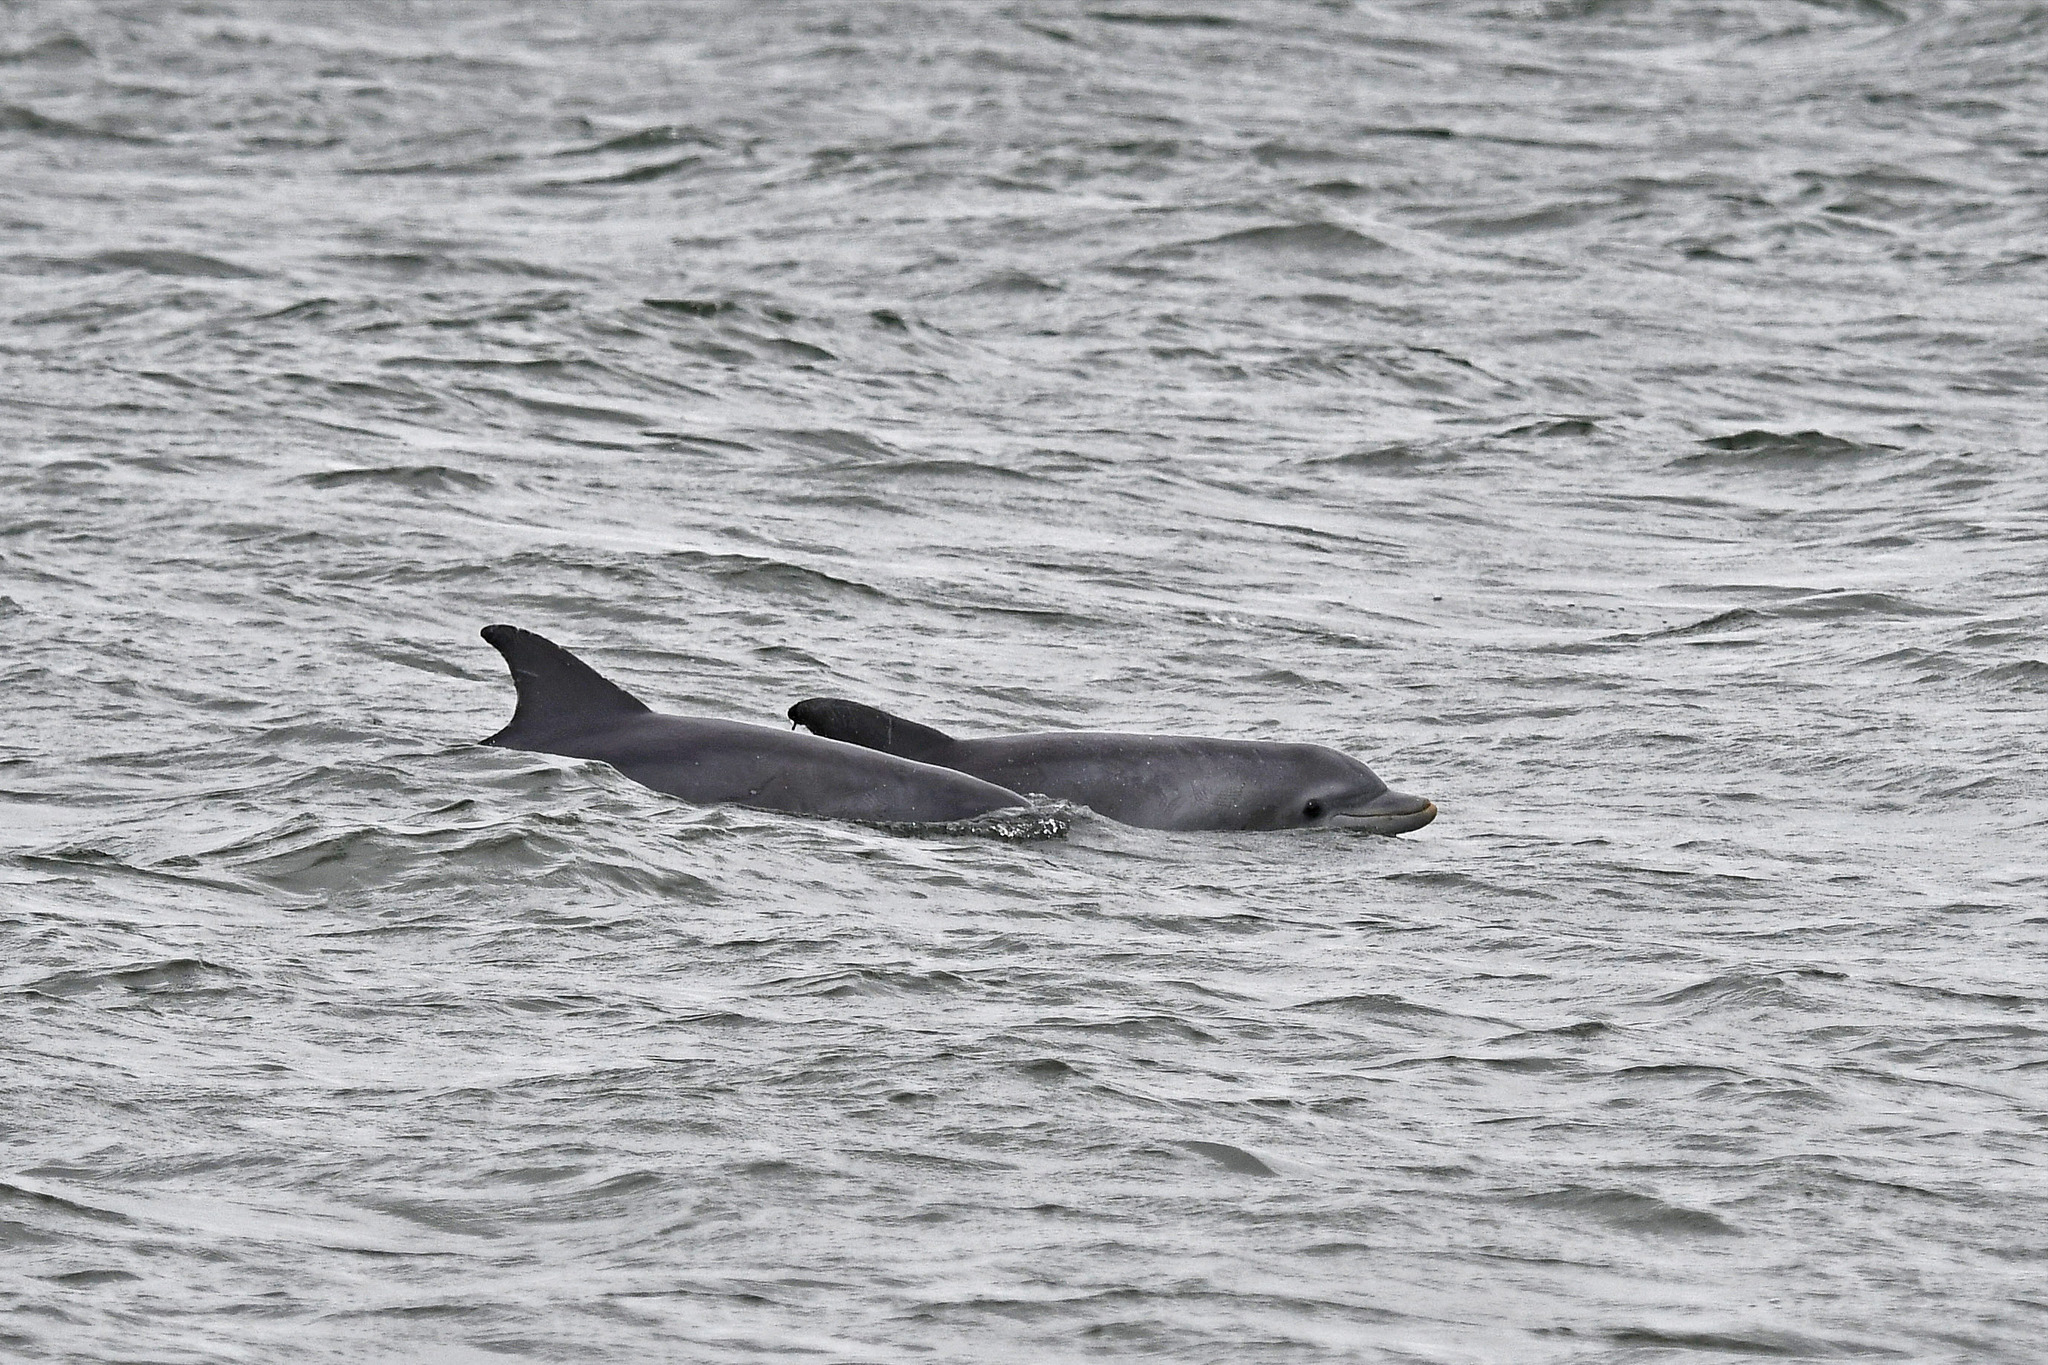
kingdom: Animalia
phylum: Chordata
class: Mammalia
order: Cetacea
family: Delphinidae
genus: Tursiops
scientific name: Tursiops truncatus
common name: Bottlenose dolphin
